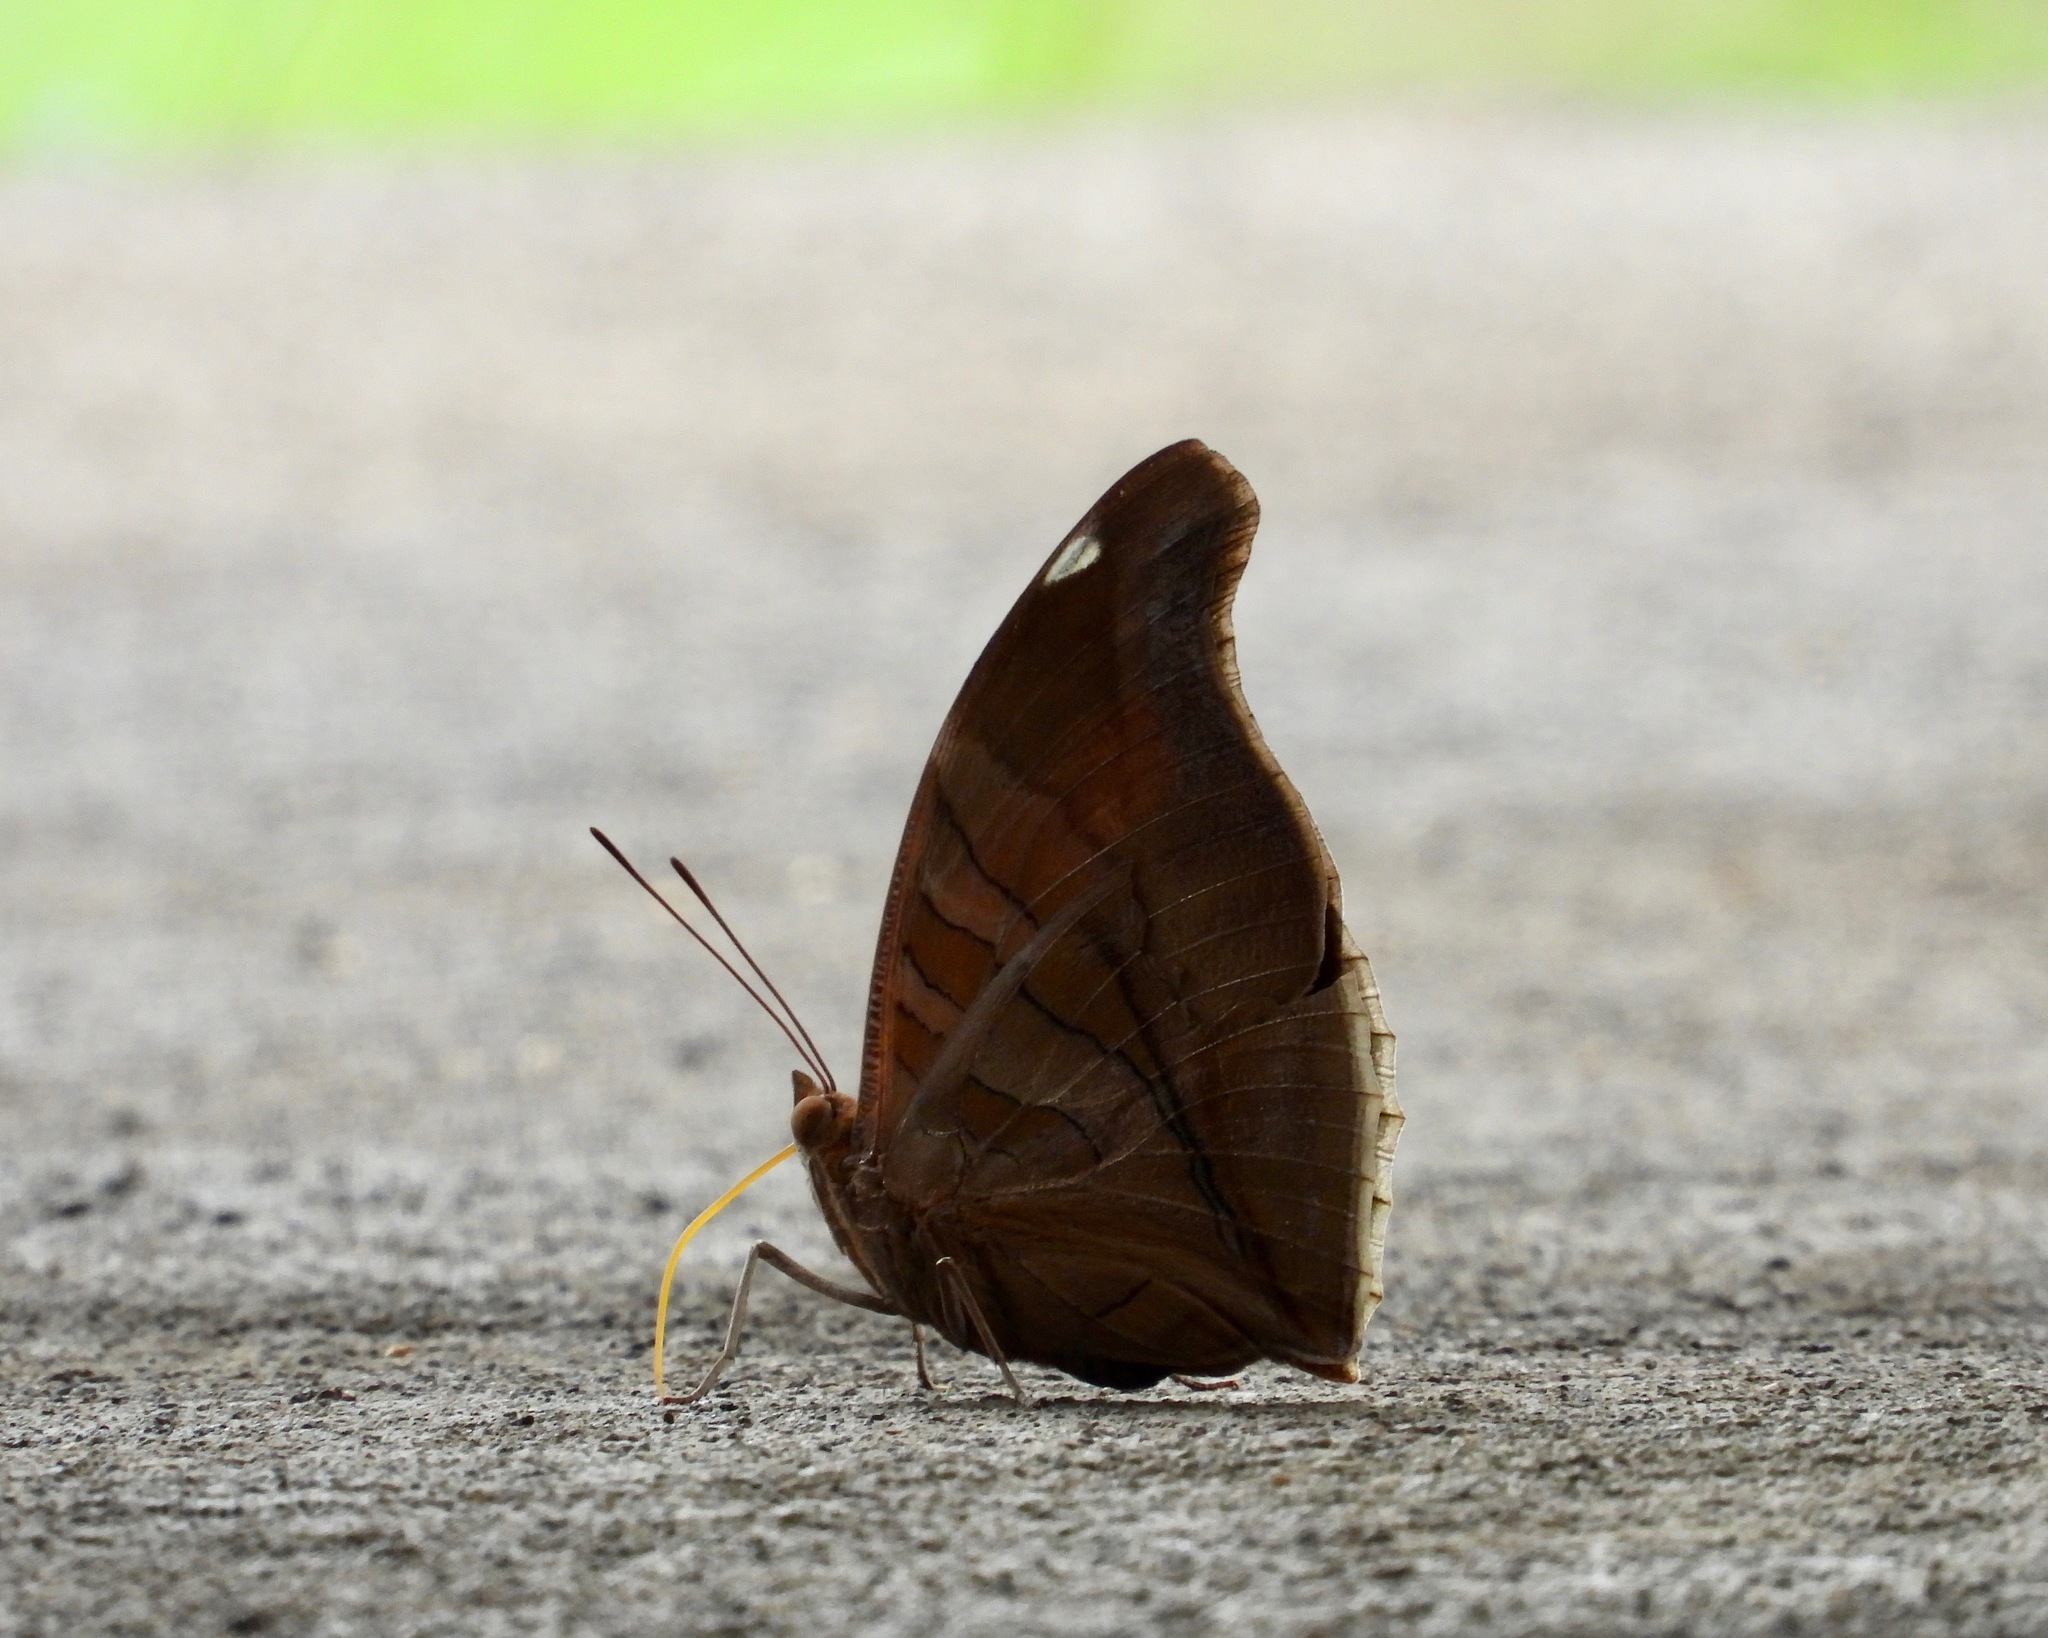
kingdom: Animalia
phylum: Arthropoda
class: Insecta
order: Lepidoptera
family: Nymphalidae
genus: Historis
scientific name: Historis odius
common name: Orion cecropian
